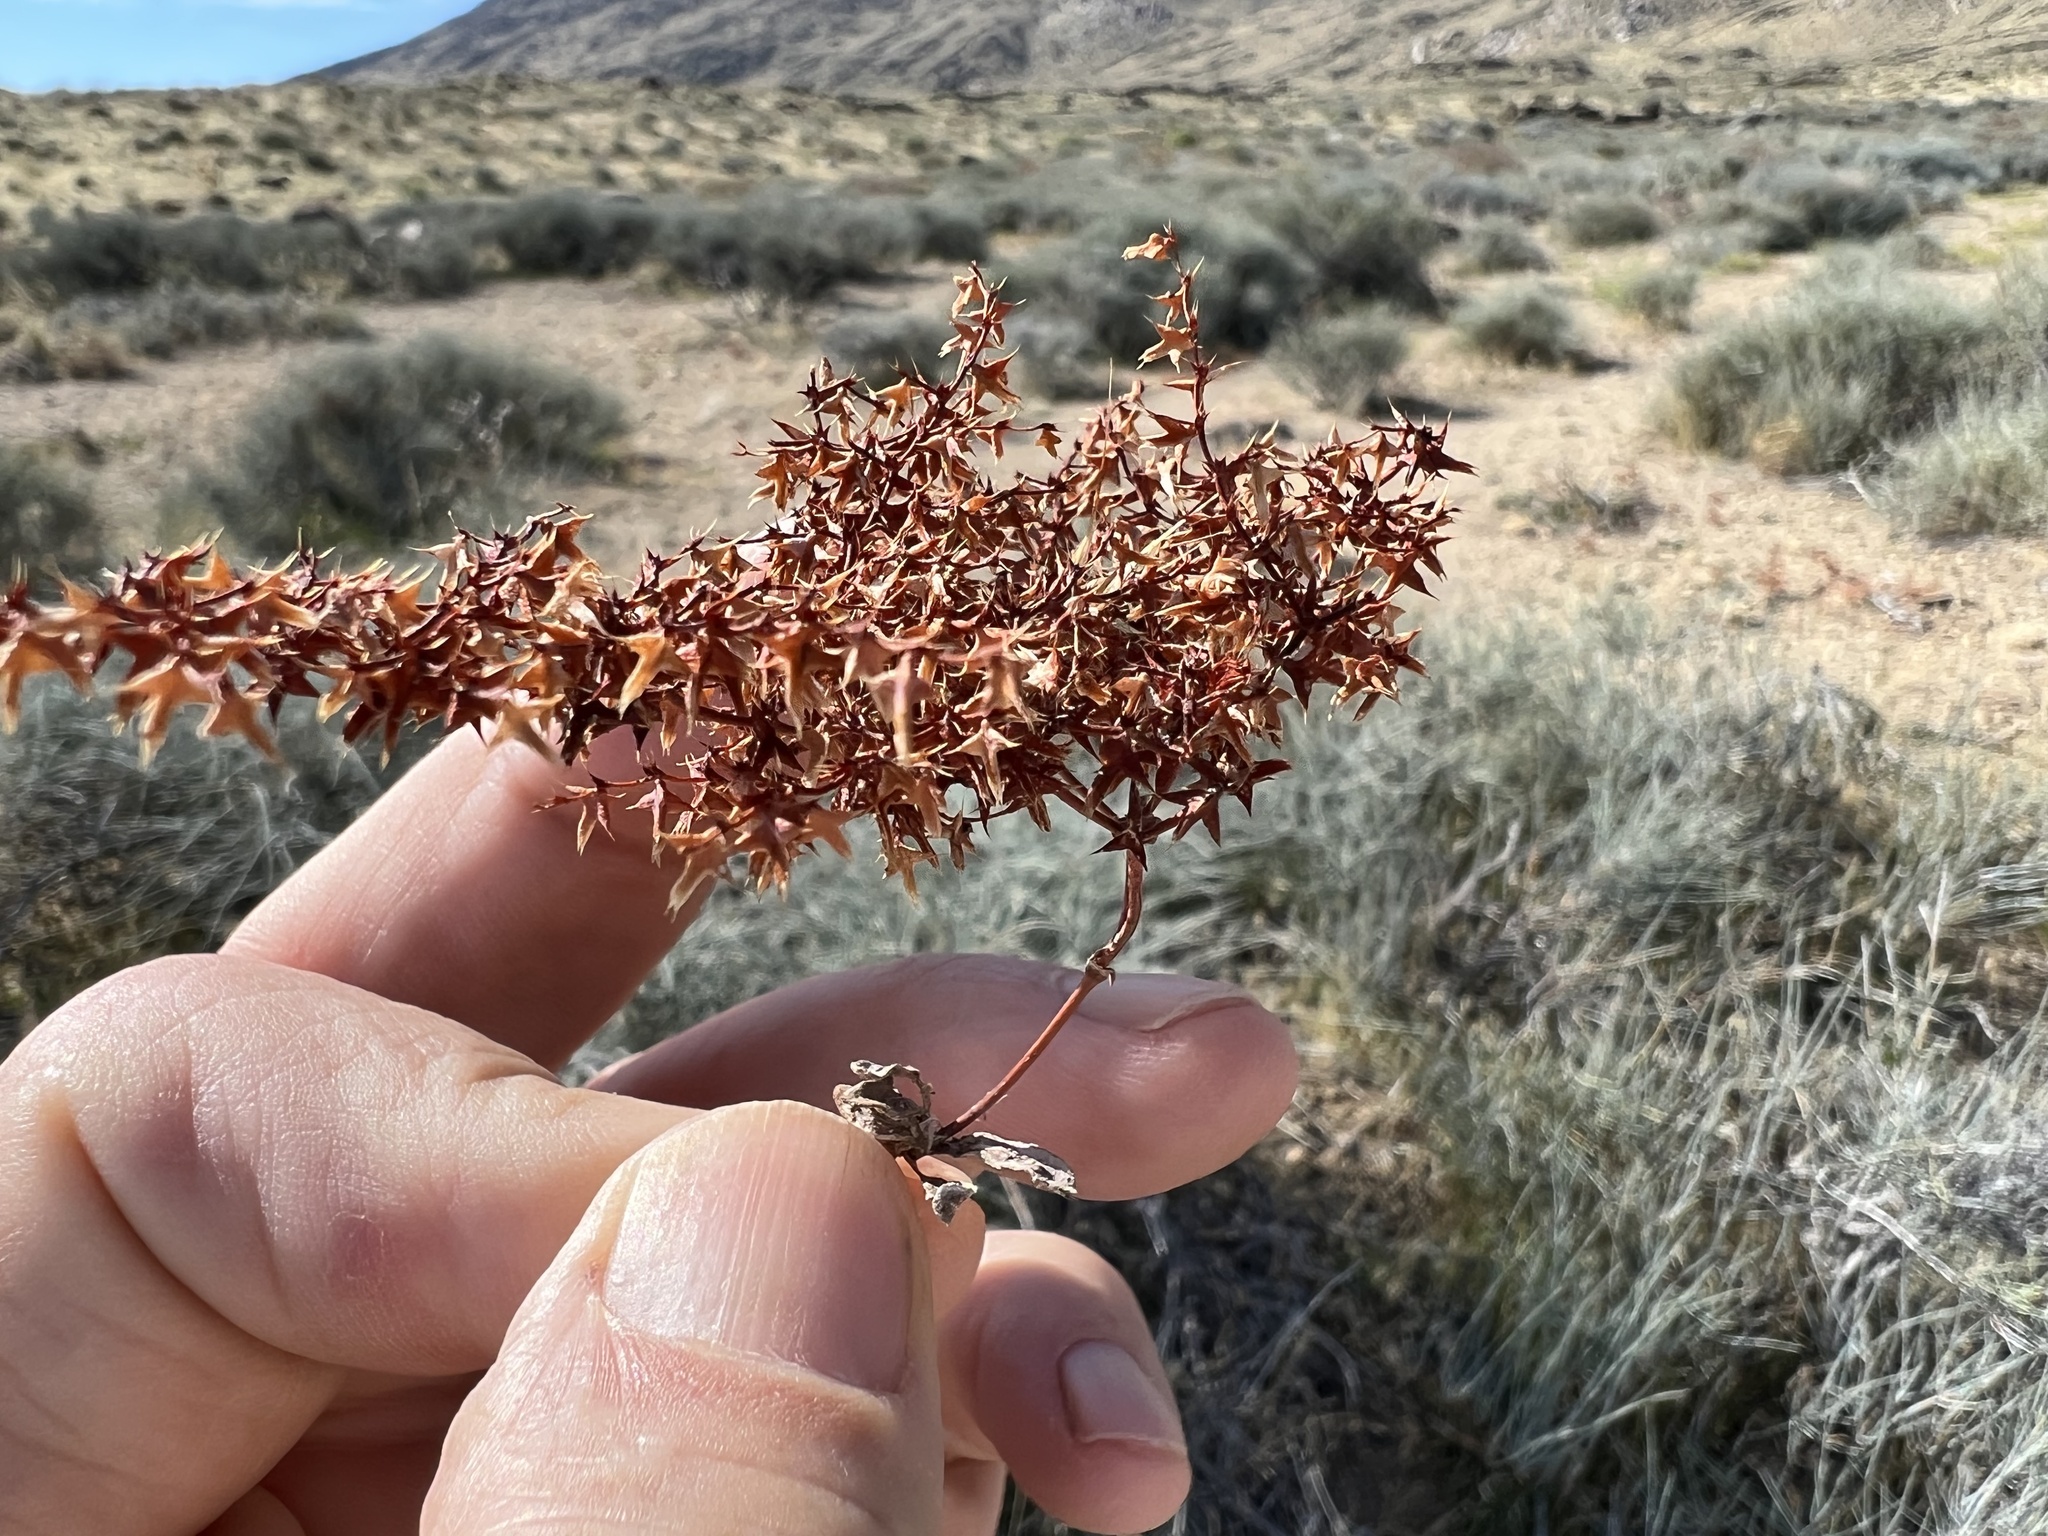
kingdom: Plantae
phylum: Tracheophyta
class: Magnoliopsida
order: Caryophyllales
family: Polygonaceae
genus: Centrostegia
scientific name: Centrostegia thurberi
